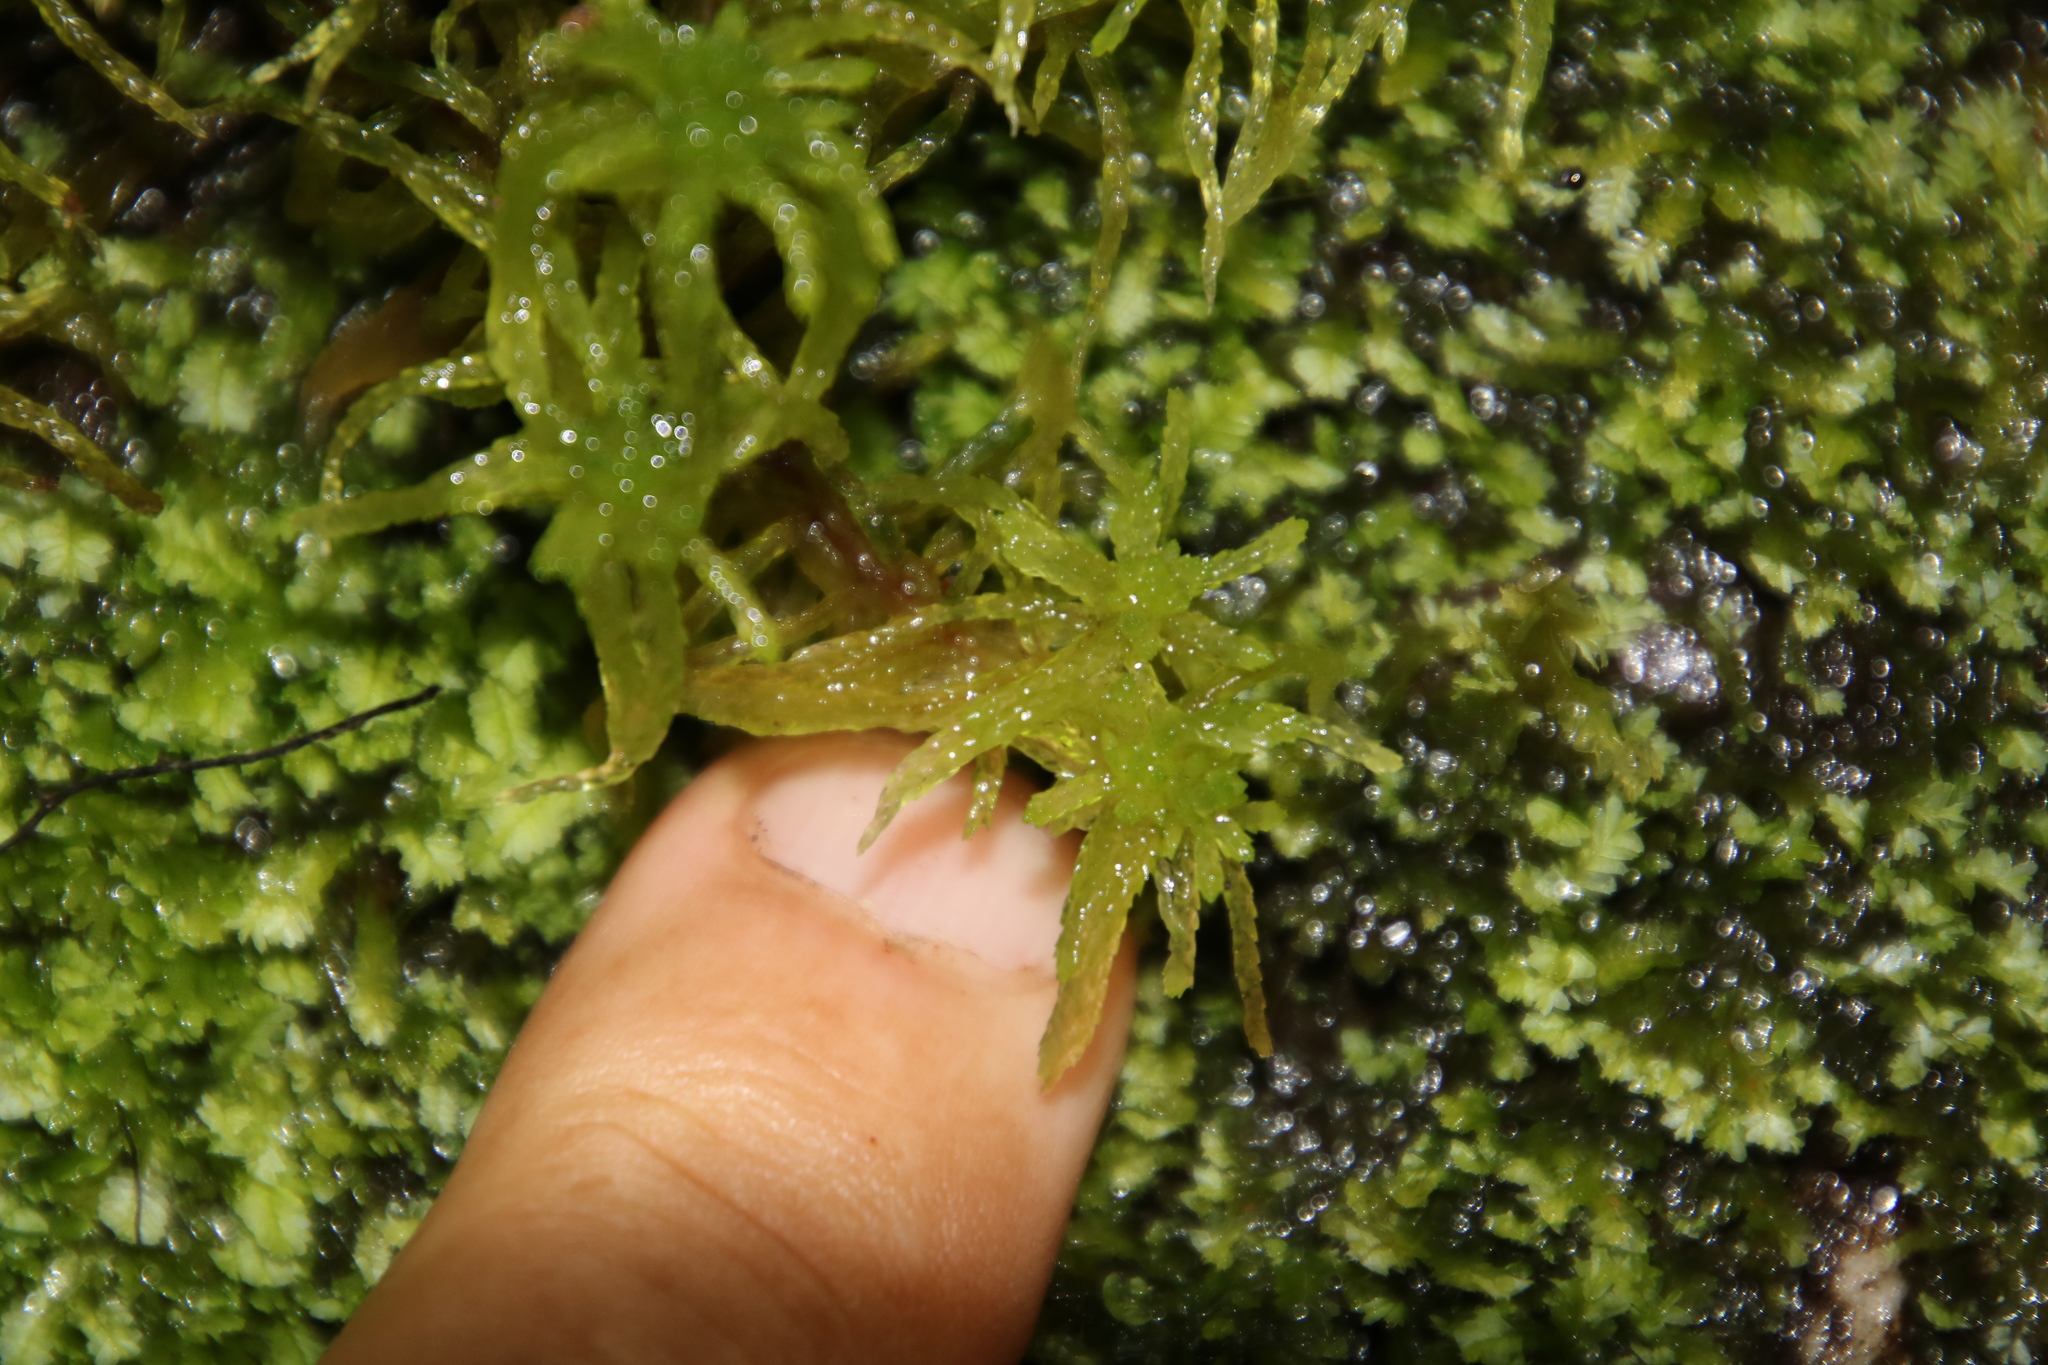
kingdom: Plantae
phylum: Bryophyta
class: Sphagnopsida
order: Sphagnales
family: Sphagnaceae
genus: Sphagnum
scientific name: Sphagnum fimbriatum
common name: Fringed peat moss
